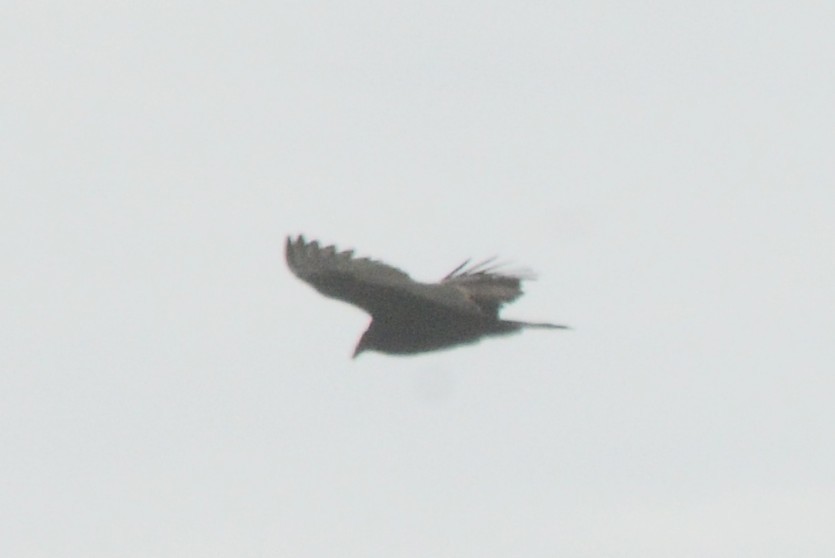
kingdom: Animalia
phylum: Chordata
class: Aves
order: Accipitriformes
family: Cathartidae
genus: Cathartes
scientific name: Cathartes aura
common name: Turkey vulture
